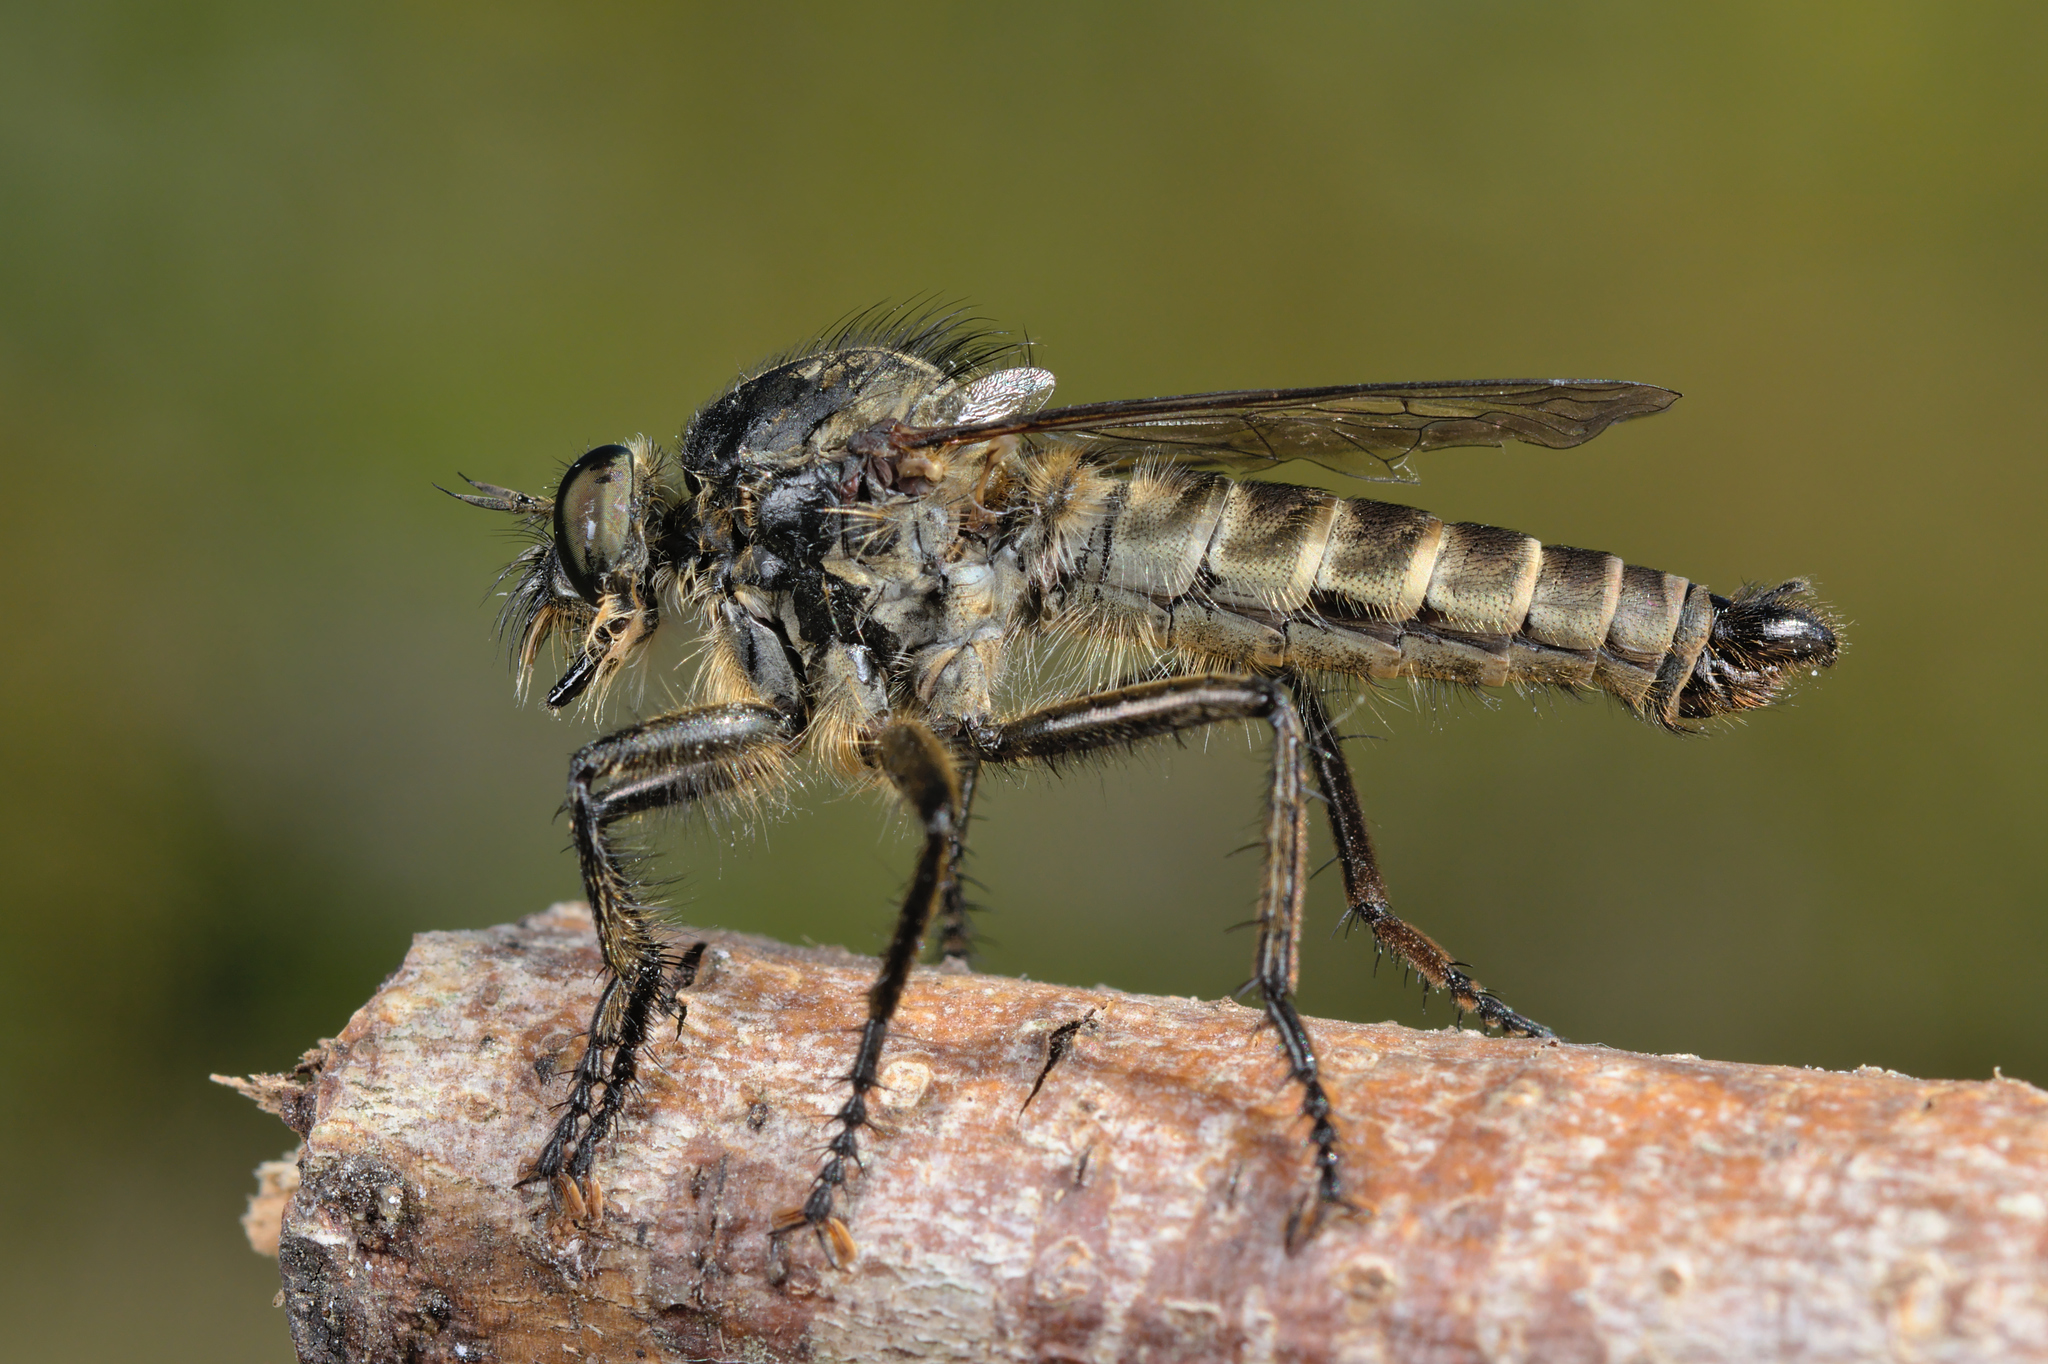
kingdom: Animalia
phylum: Arthropoda
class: Insecta
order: Diptera
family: Asilidae
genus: Machimus
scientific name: Machimus
